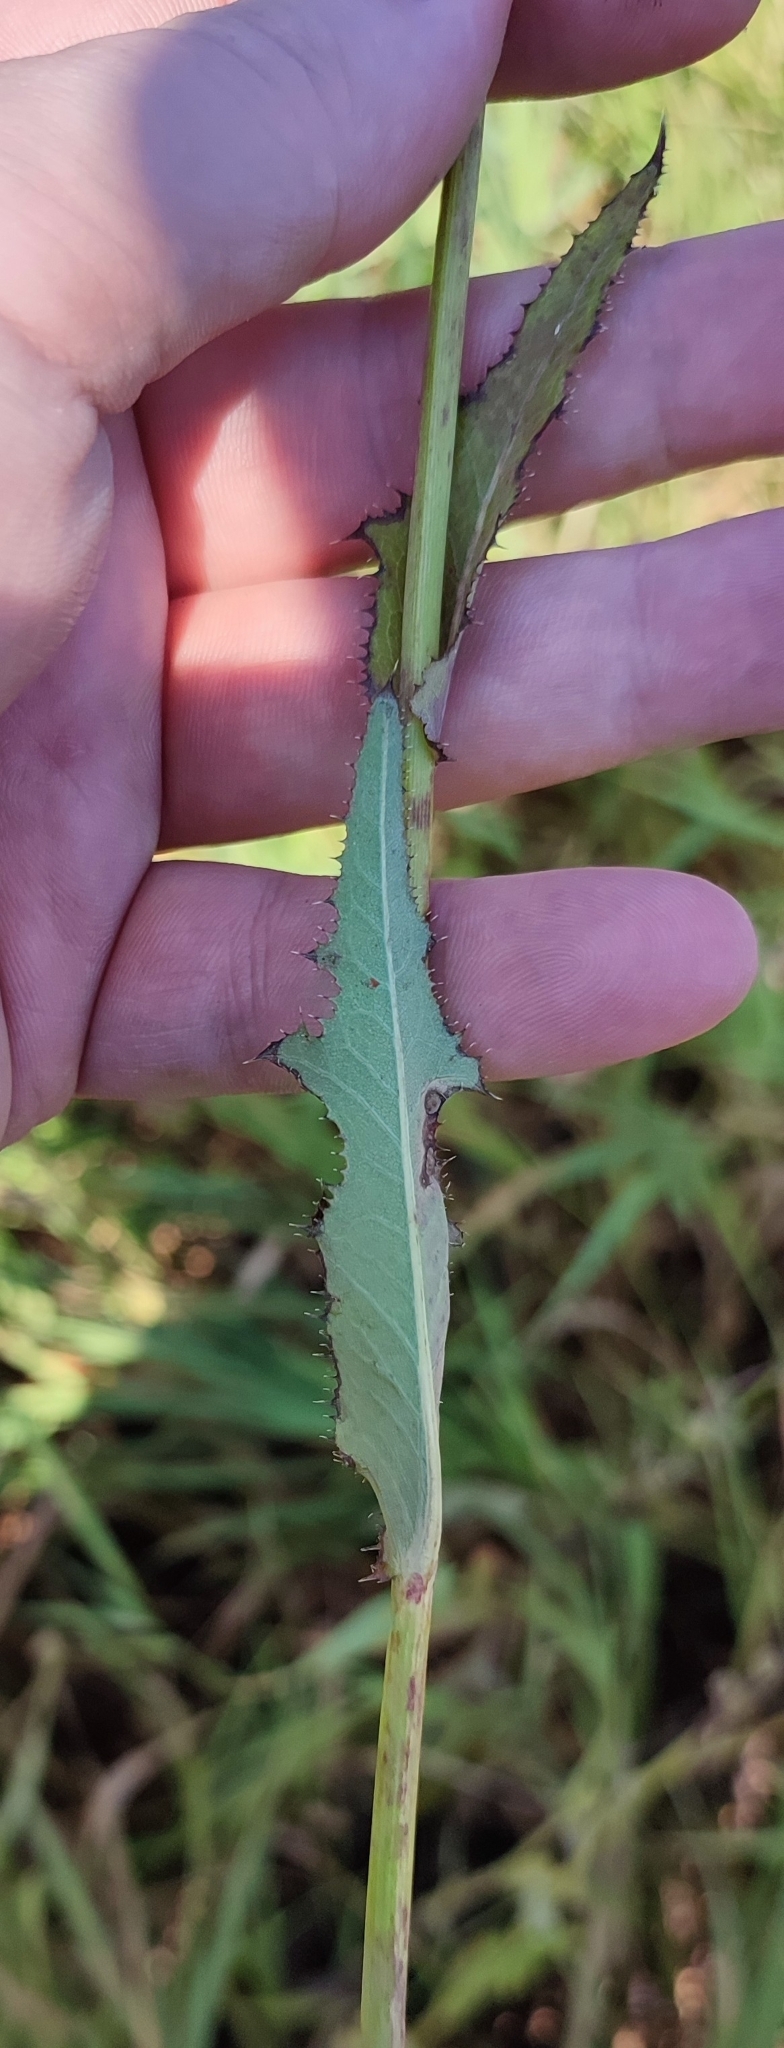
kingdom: Plantae
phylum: Tracheophyta
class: Magnoliopsida
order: Asterales
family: Asteraceae
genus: Sonchus
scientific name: Sonchus arvensis
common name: Perennial sow-thistle
